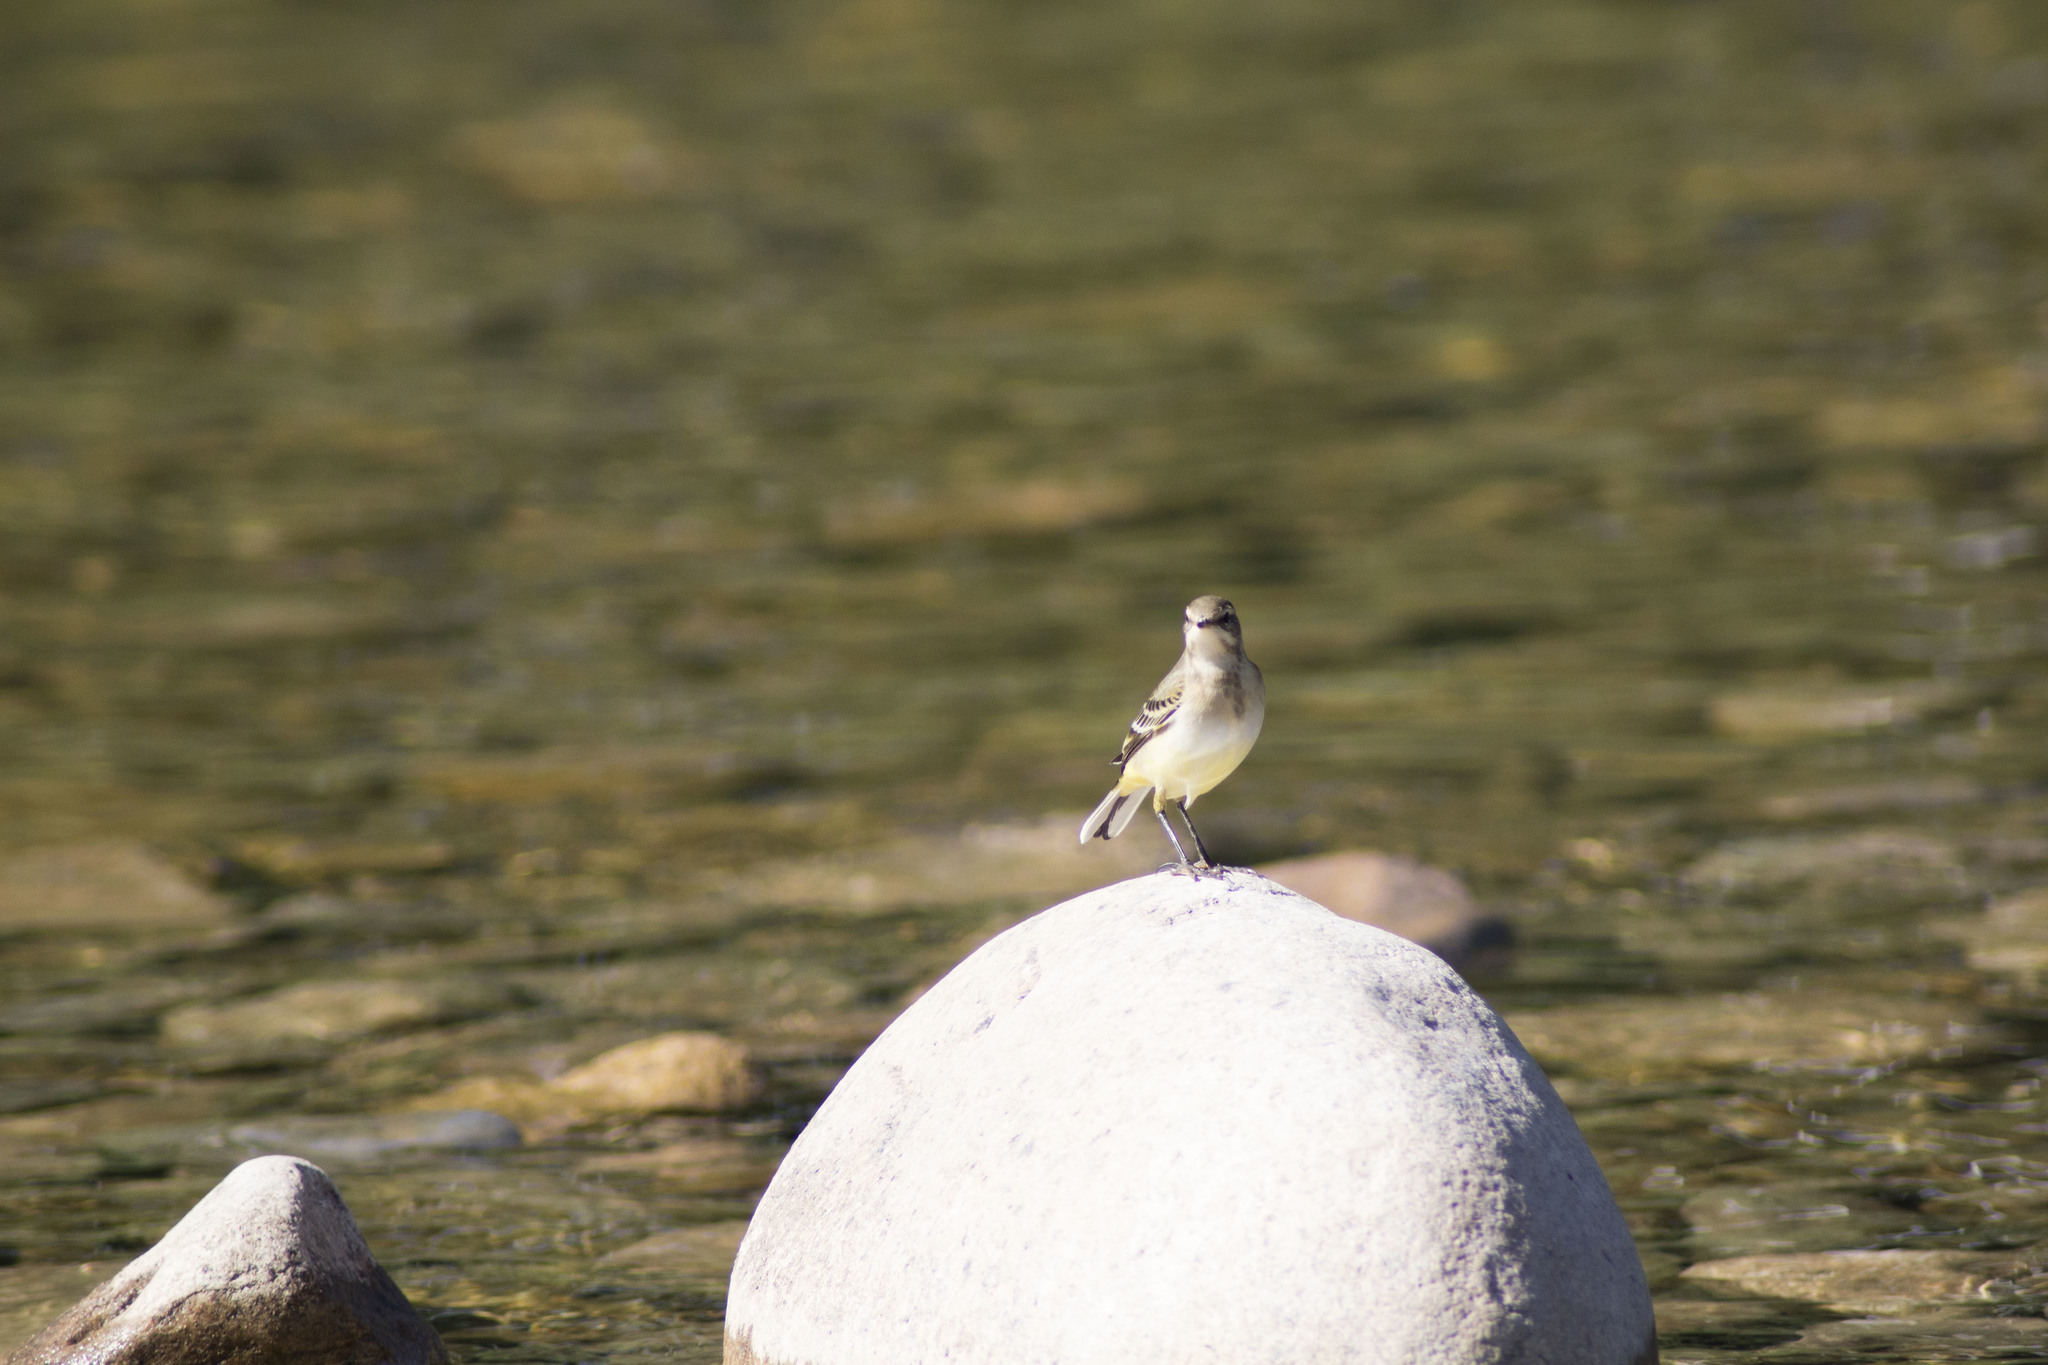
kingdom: Animalia
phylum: Chordata
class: Aves
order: Passeriformes
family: Motacillidae
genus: Motacilla
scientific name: Motacilla flava
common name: Western yellow wagtail
